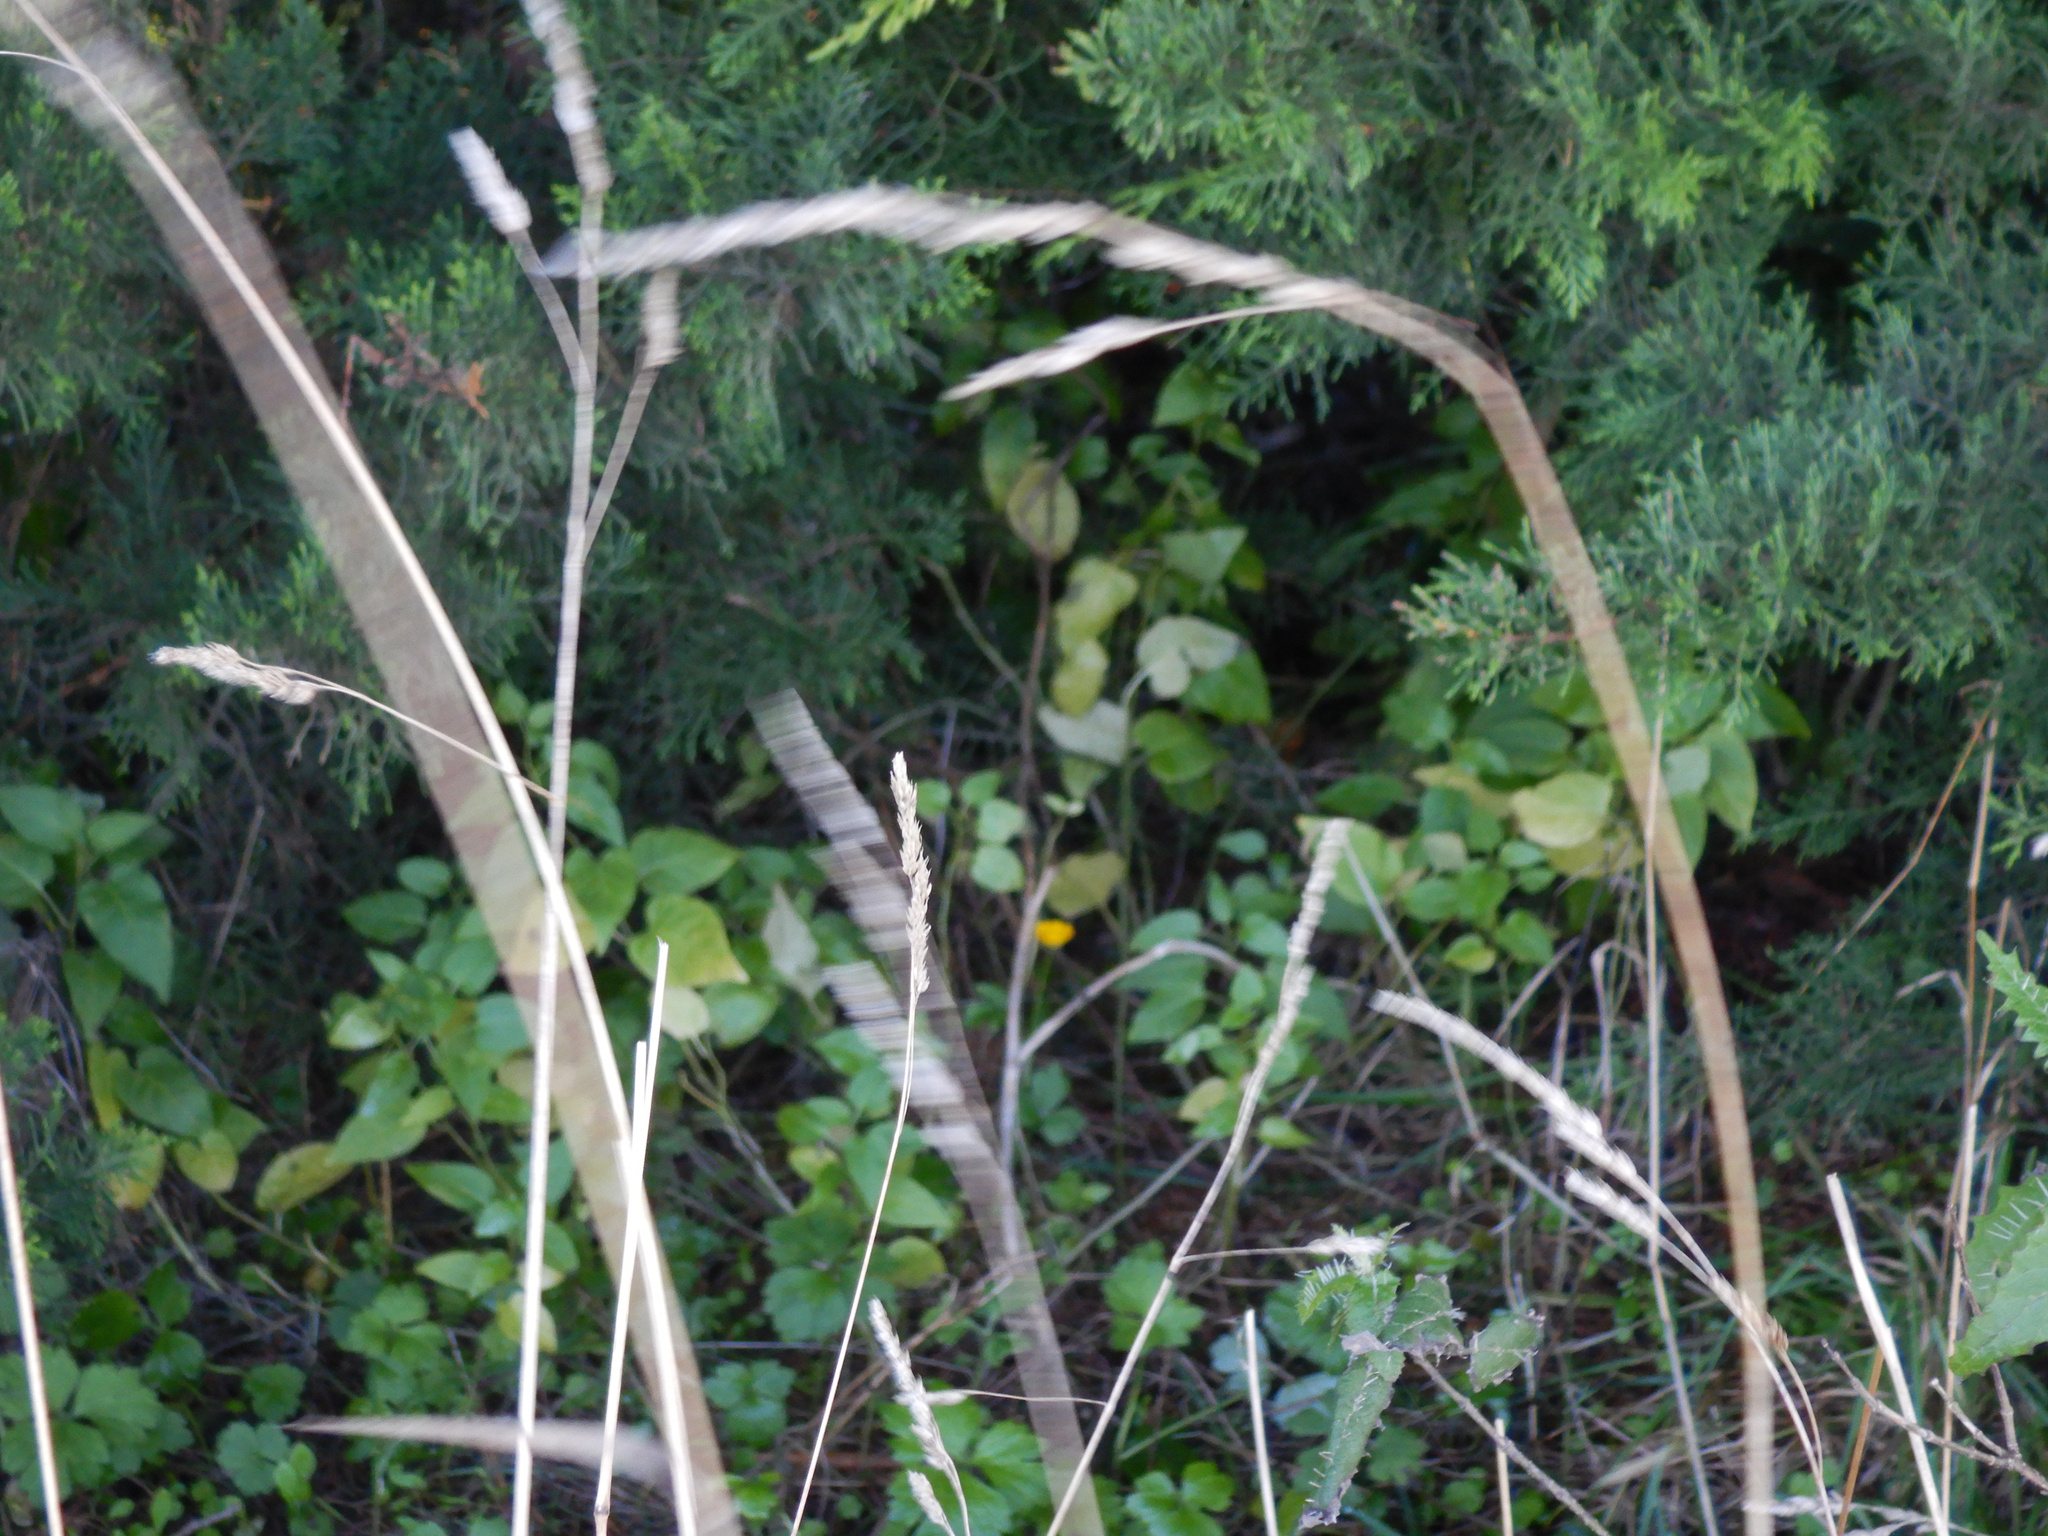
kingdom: Plantae
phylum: Tracheophyta
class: Magnoliopsida
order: Solanales
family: Solanaceae
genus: Solanum
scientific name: Solanum dulcamara
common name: Climbing nightshade
